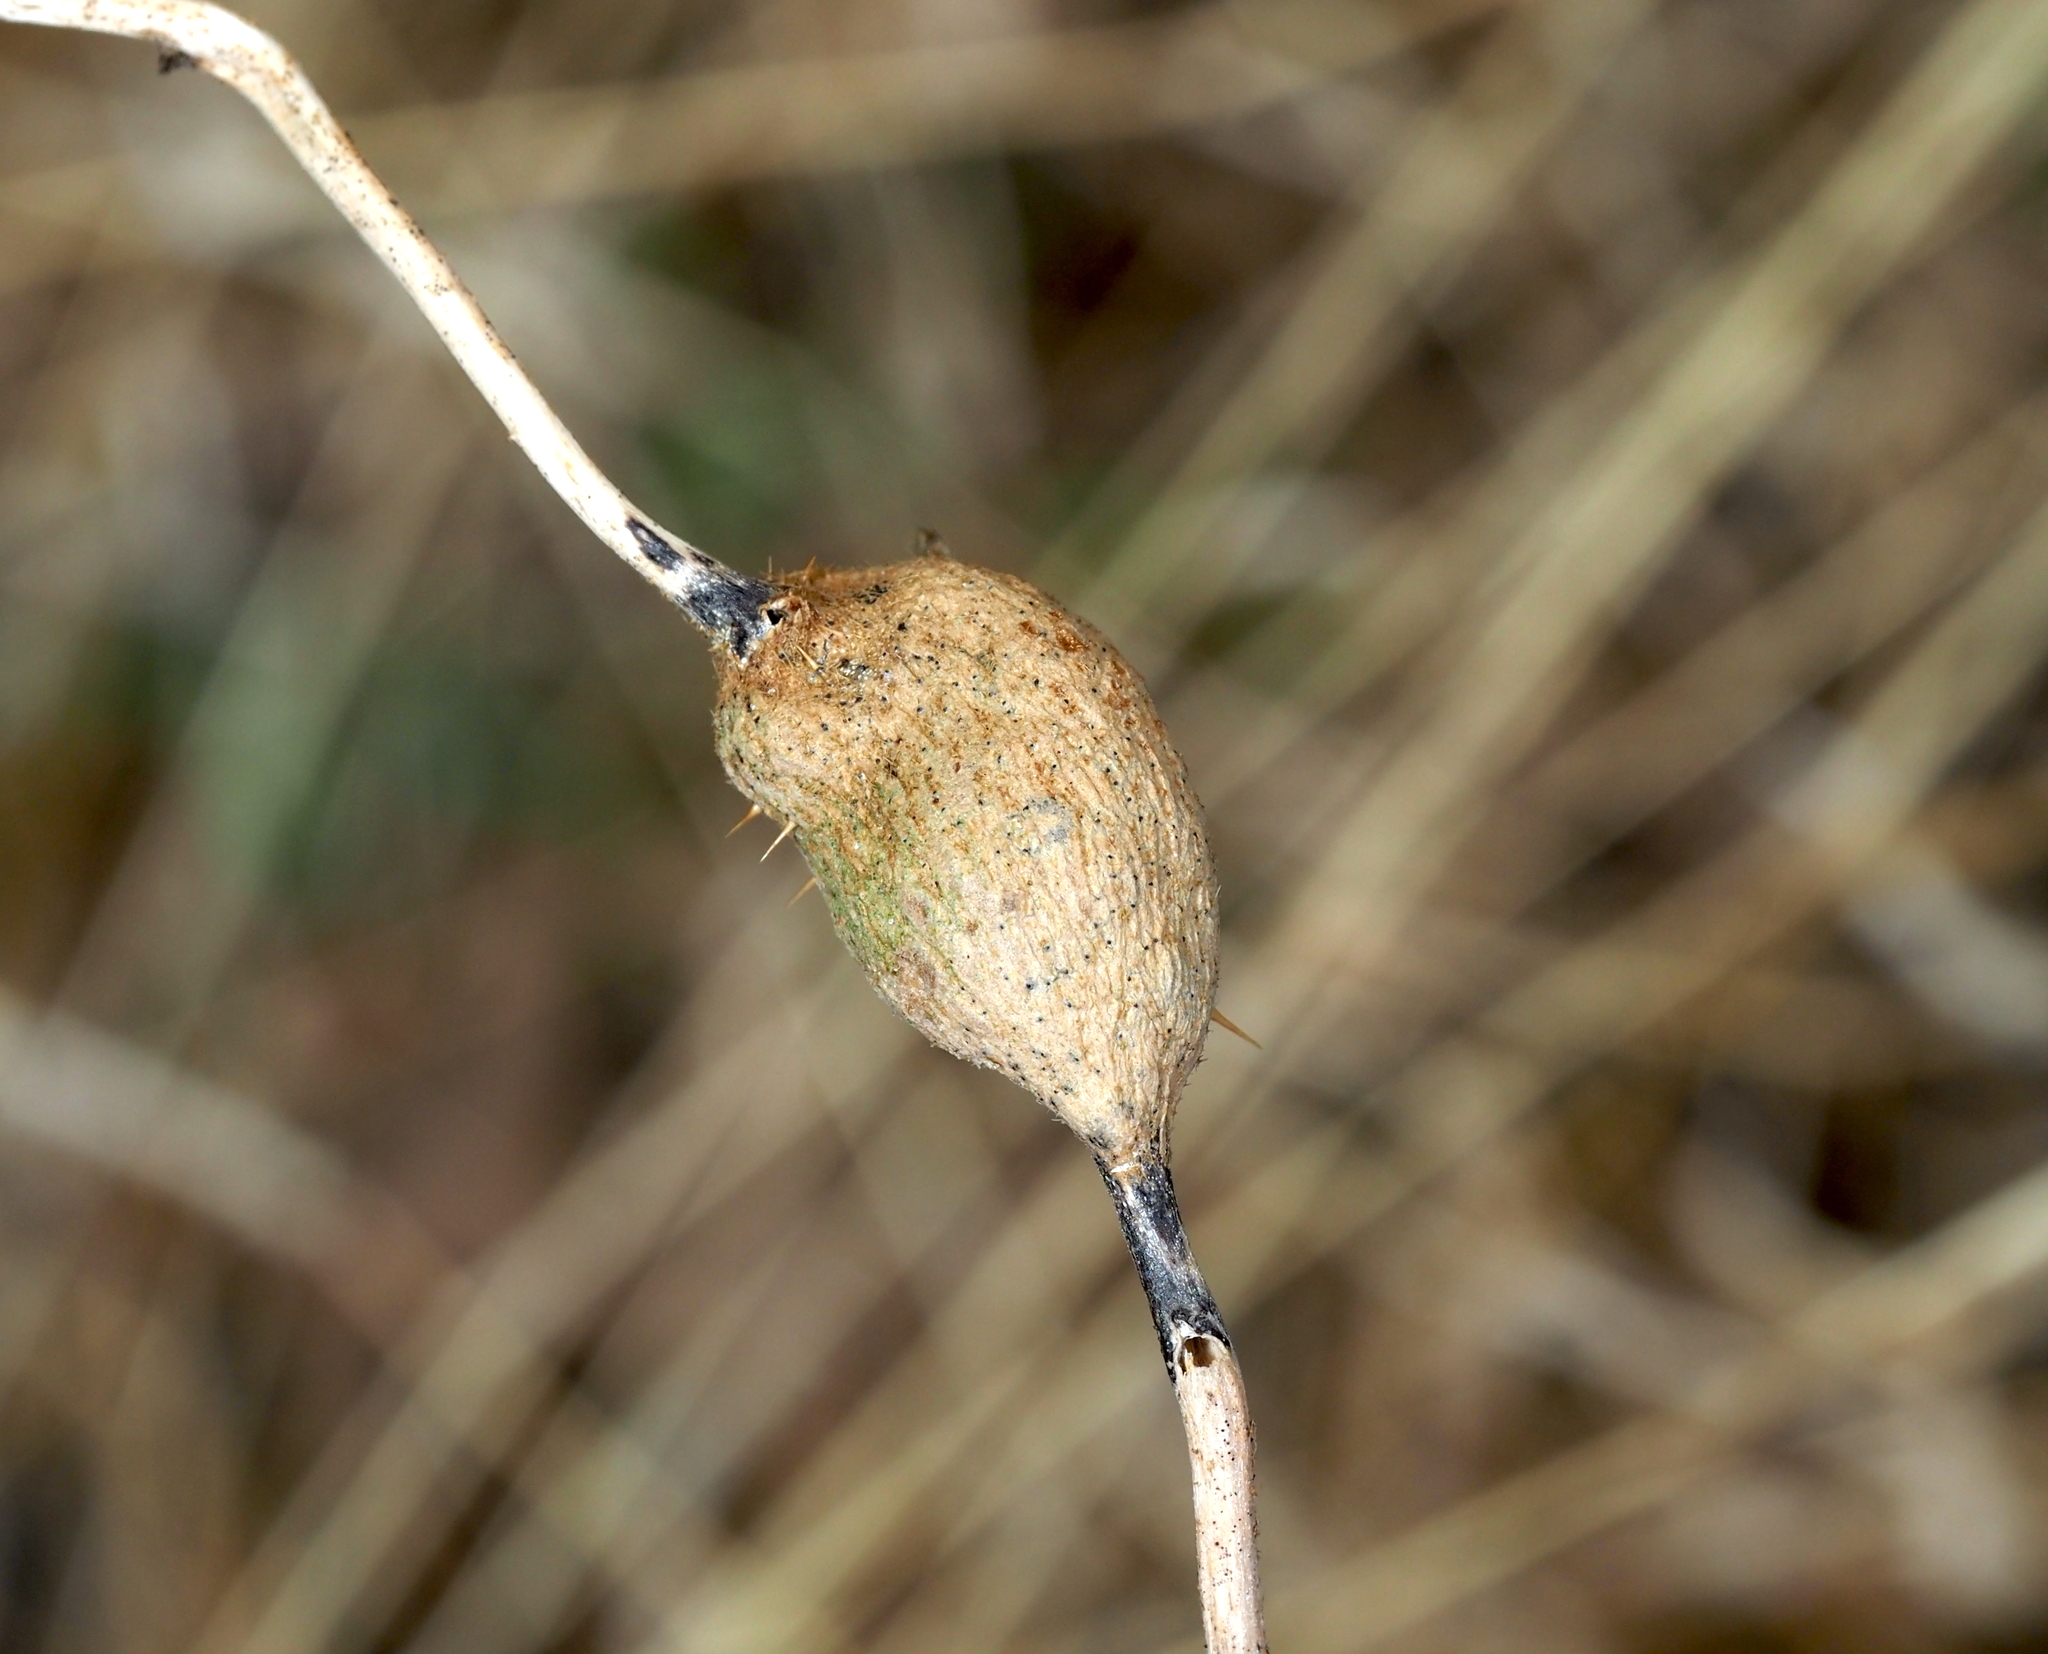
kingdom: Animalia
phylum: Arthropoda
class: Insecta
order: Diptera
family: Cecidomyiidae
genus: Lasioptera
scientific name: Lasioptera solani
